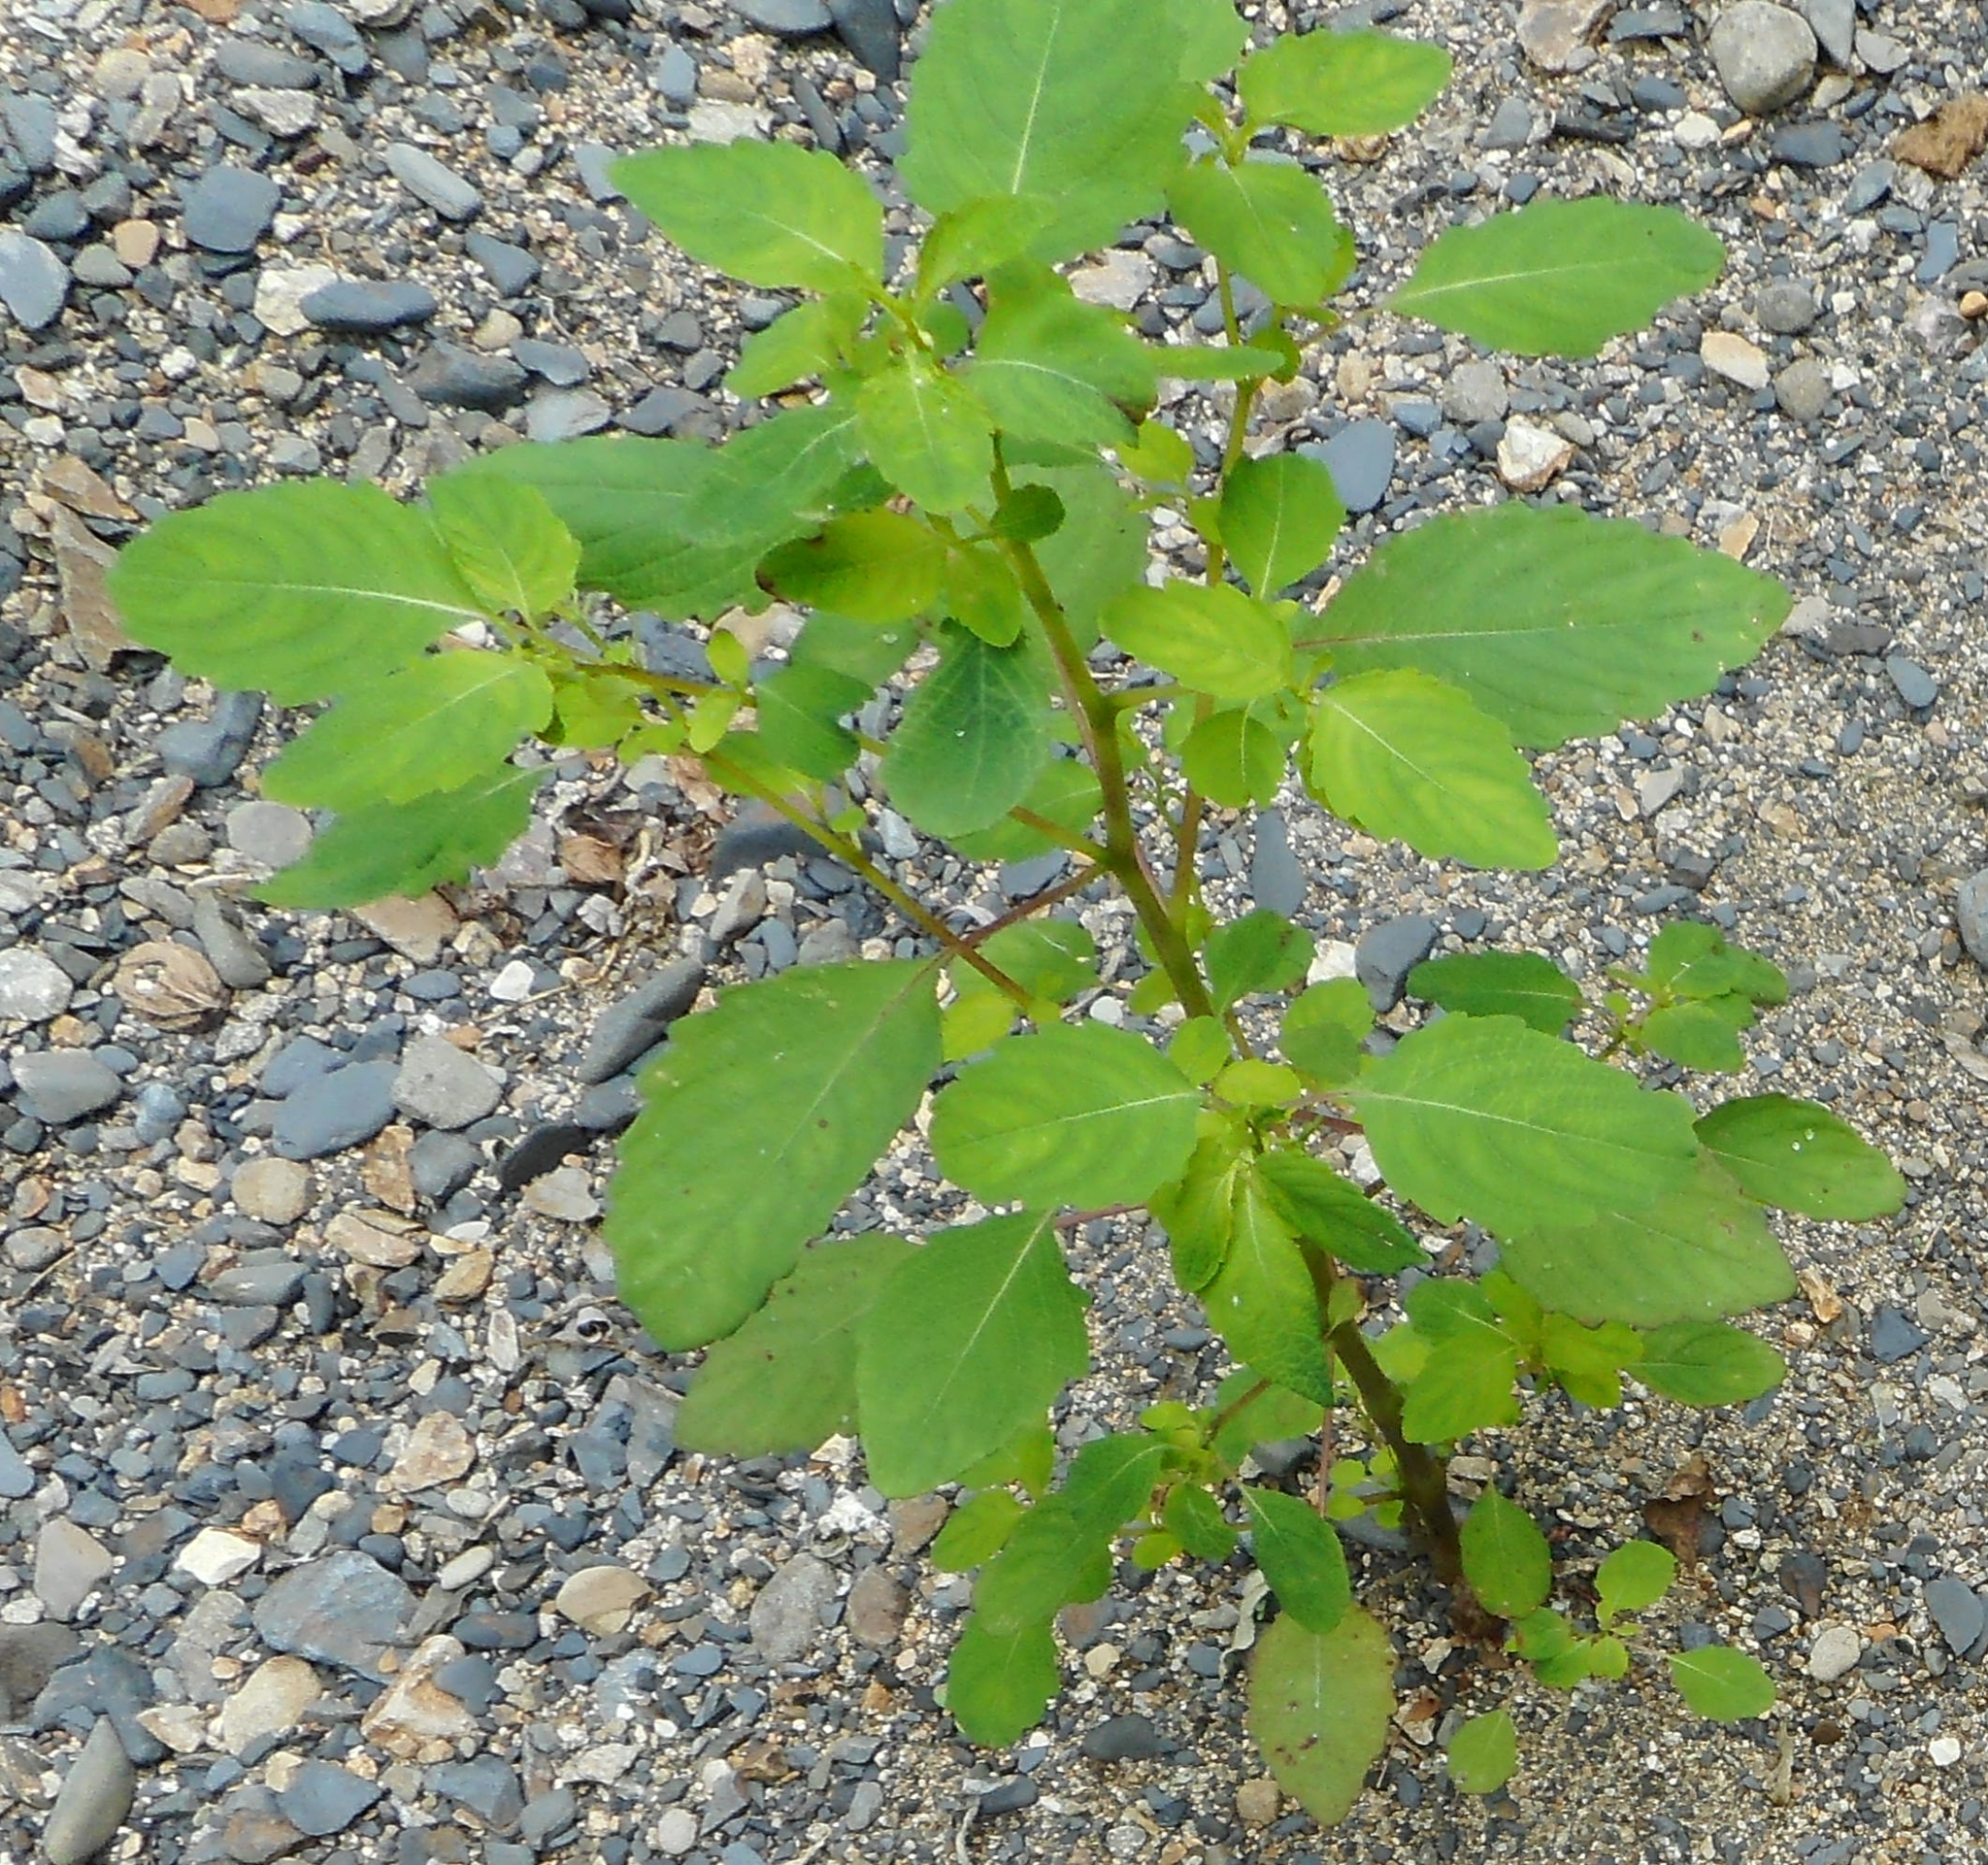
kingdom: Plantae
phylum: Tracheophyta
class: Magnoliopsida
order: Ericales
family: Balsaminaceae
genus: Impatiens
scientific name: Impatiens noli-tangere
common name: Touch-me-not balsam
